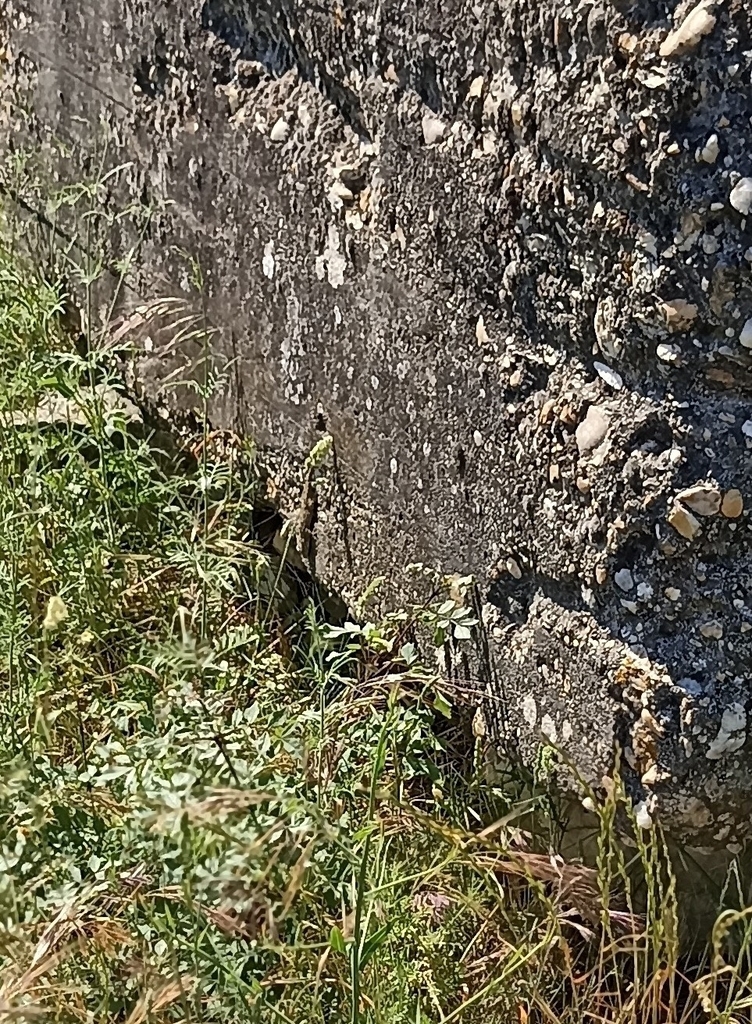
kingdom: Animalia
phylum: Chordata
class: Squamata
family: Phyllodactylidae
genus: Tarentola
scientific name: Tarentola mauritanica
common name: Moorish gecko
